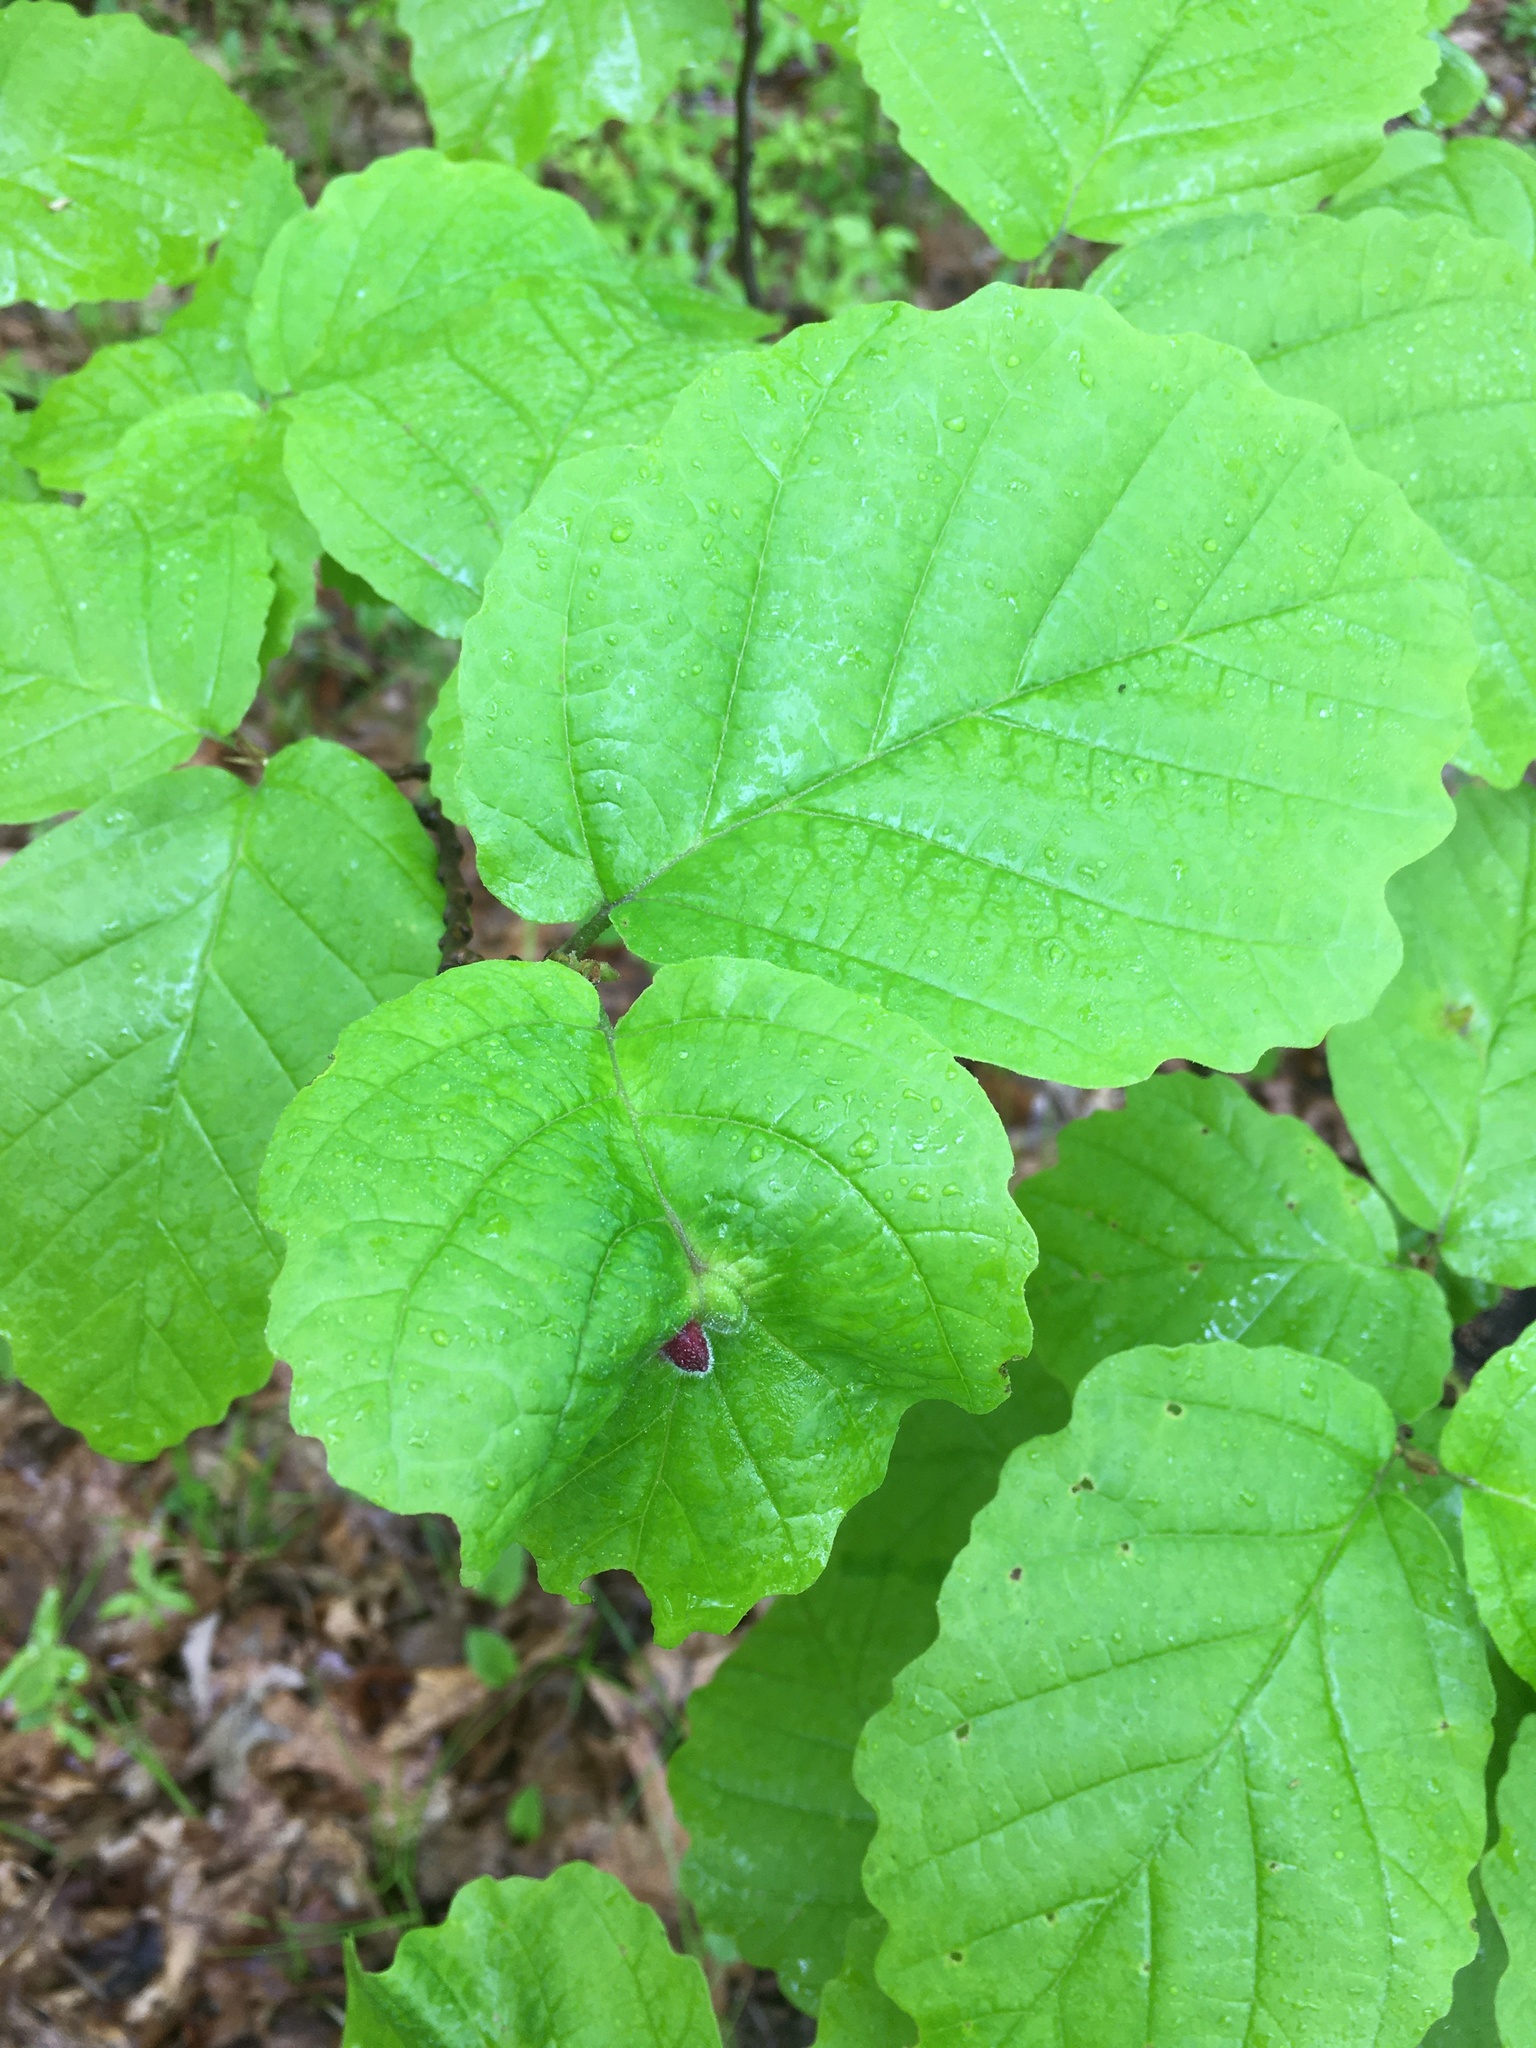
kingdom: Plantae
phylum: Tracheophyta
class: Magnoliopsida
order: Saxifragales
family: Hamamelidaceae
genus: Hamamelis
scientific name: Hamamelis virginiana
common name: Witch-hazel
